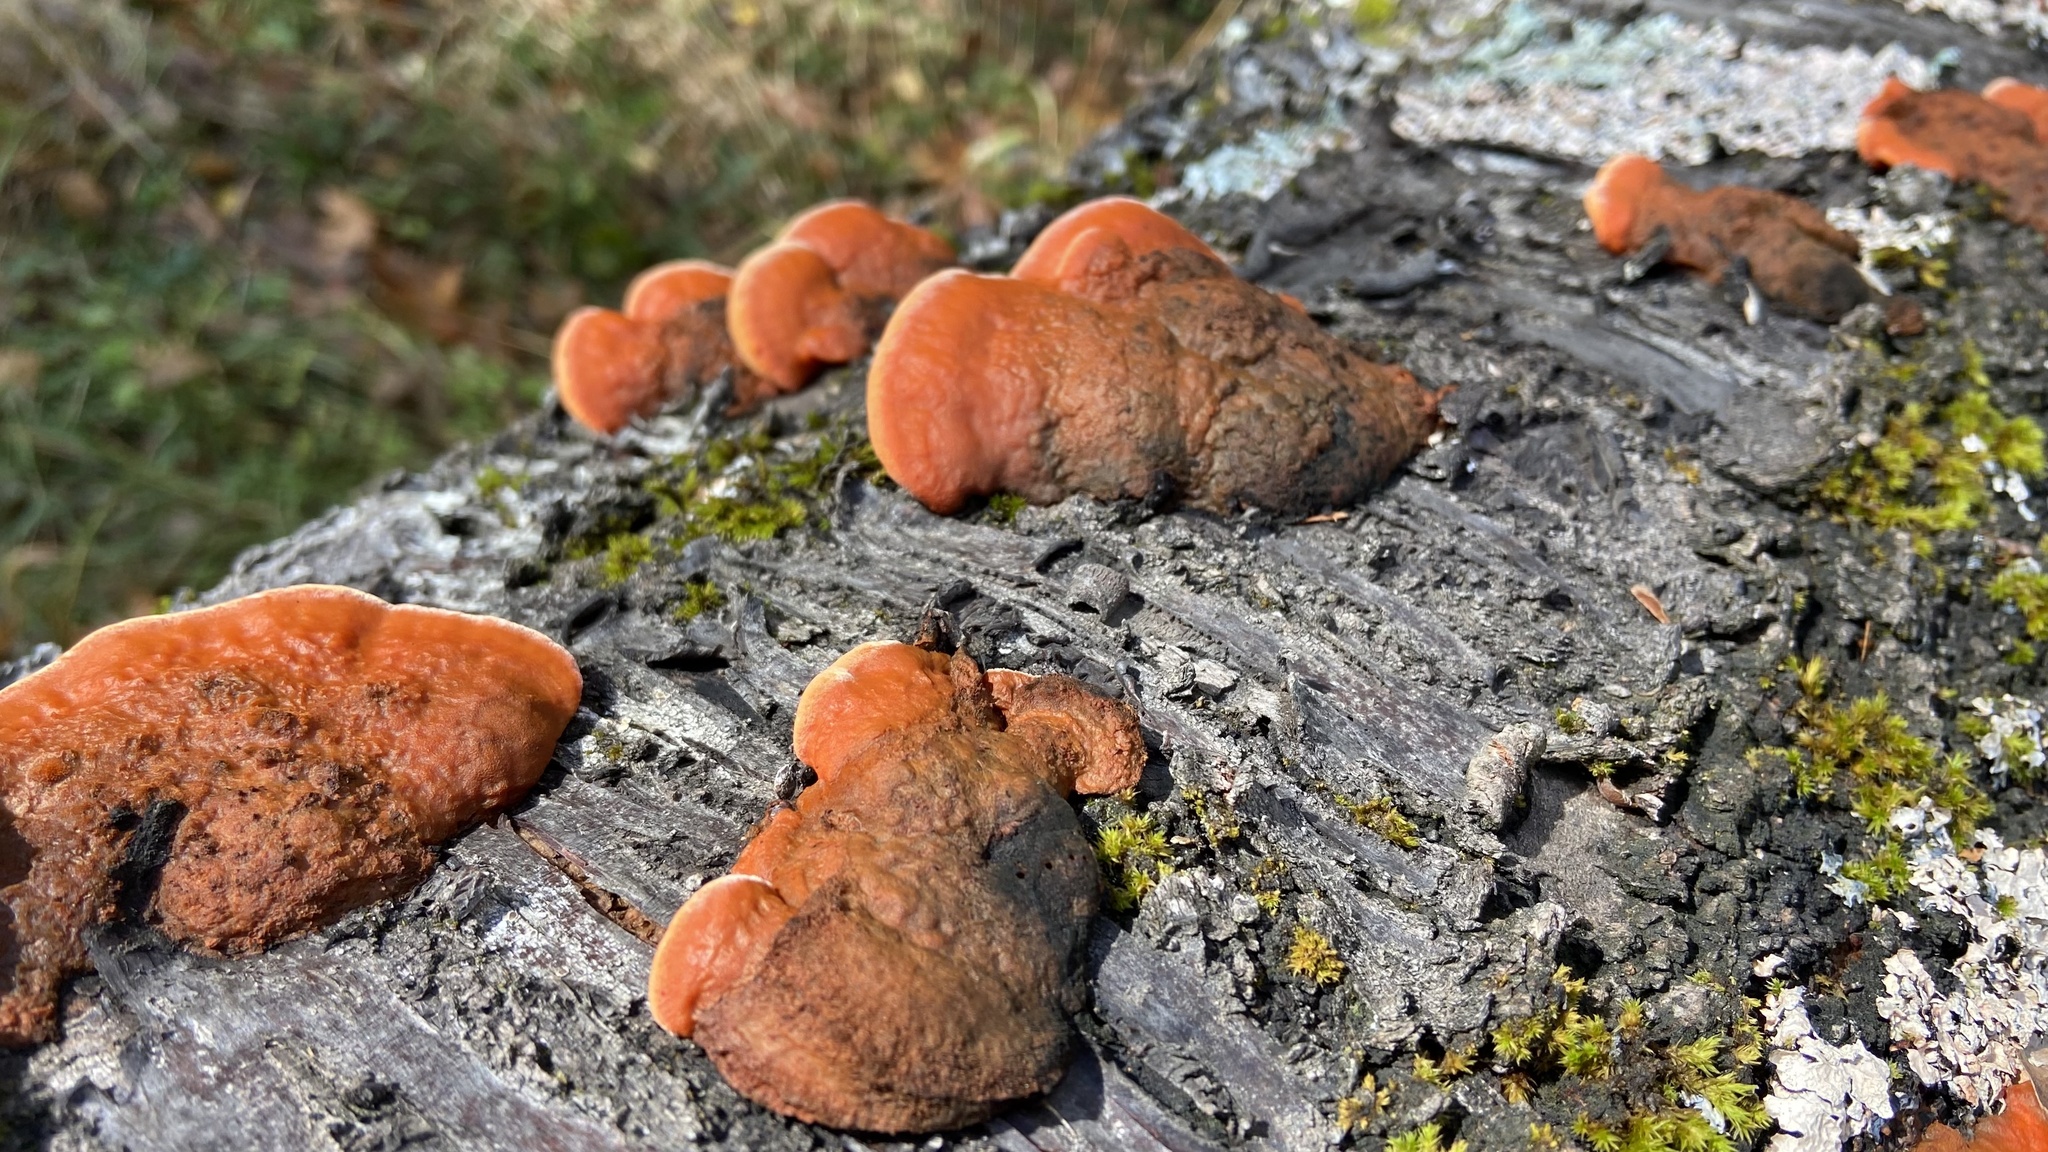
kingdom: Fungi
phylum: Basidiomycota
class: Agaricomycetes
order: Polyporales
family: Polyporaceae
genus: Trametes
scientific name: Trametes cinnabarina
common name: Northern cinnabar polypore
